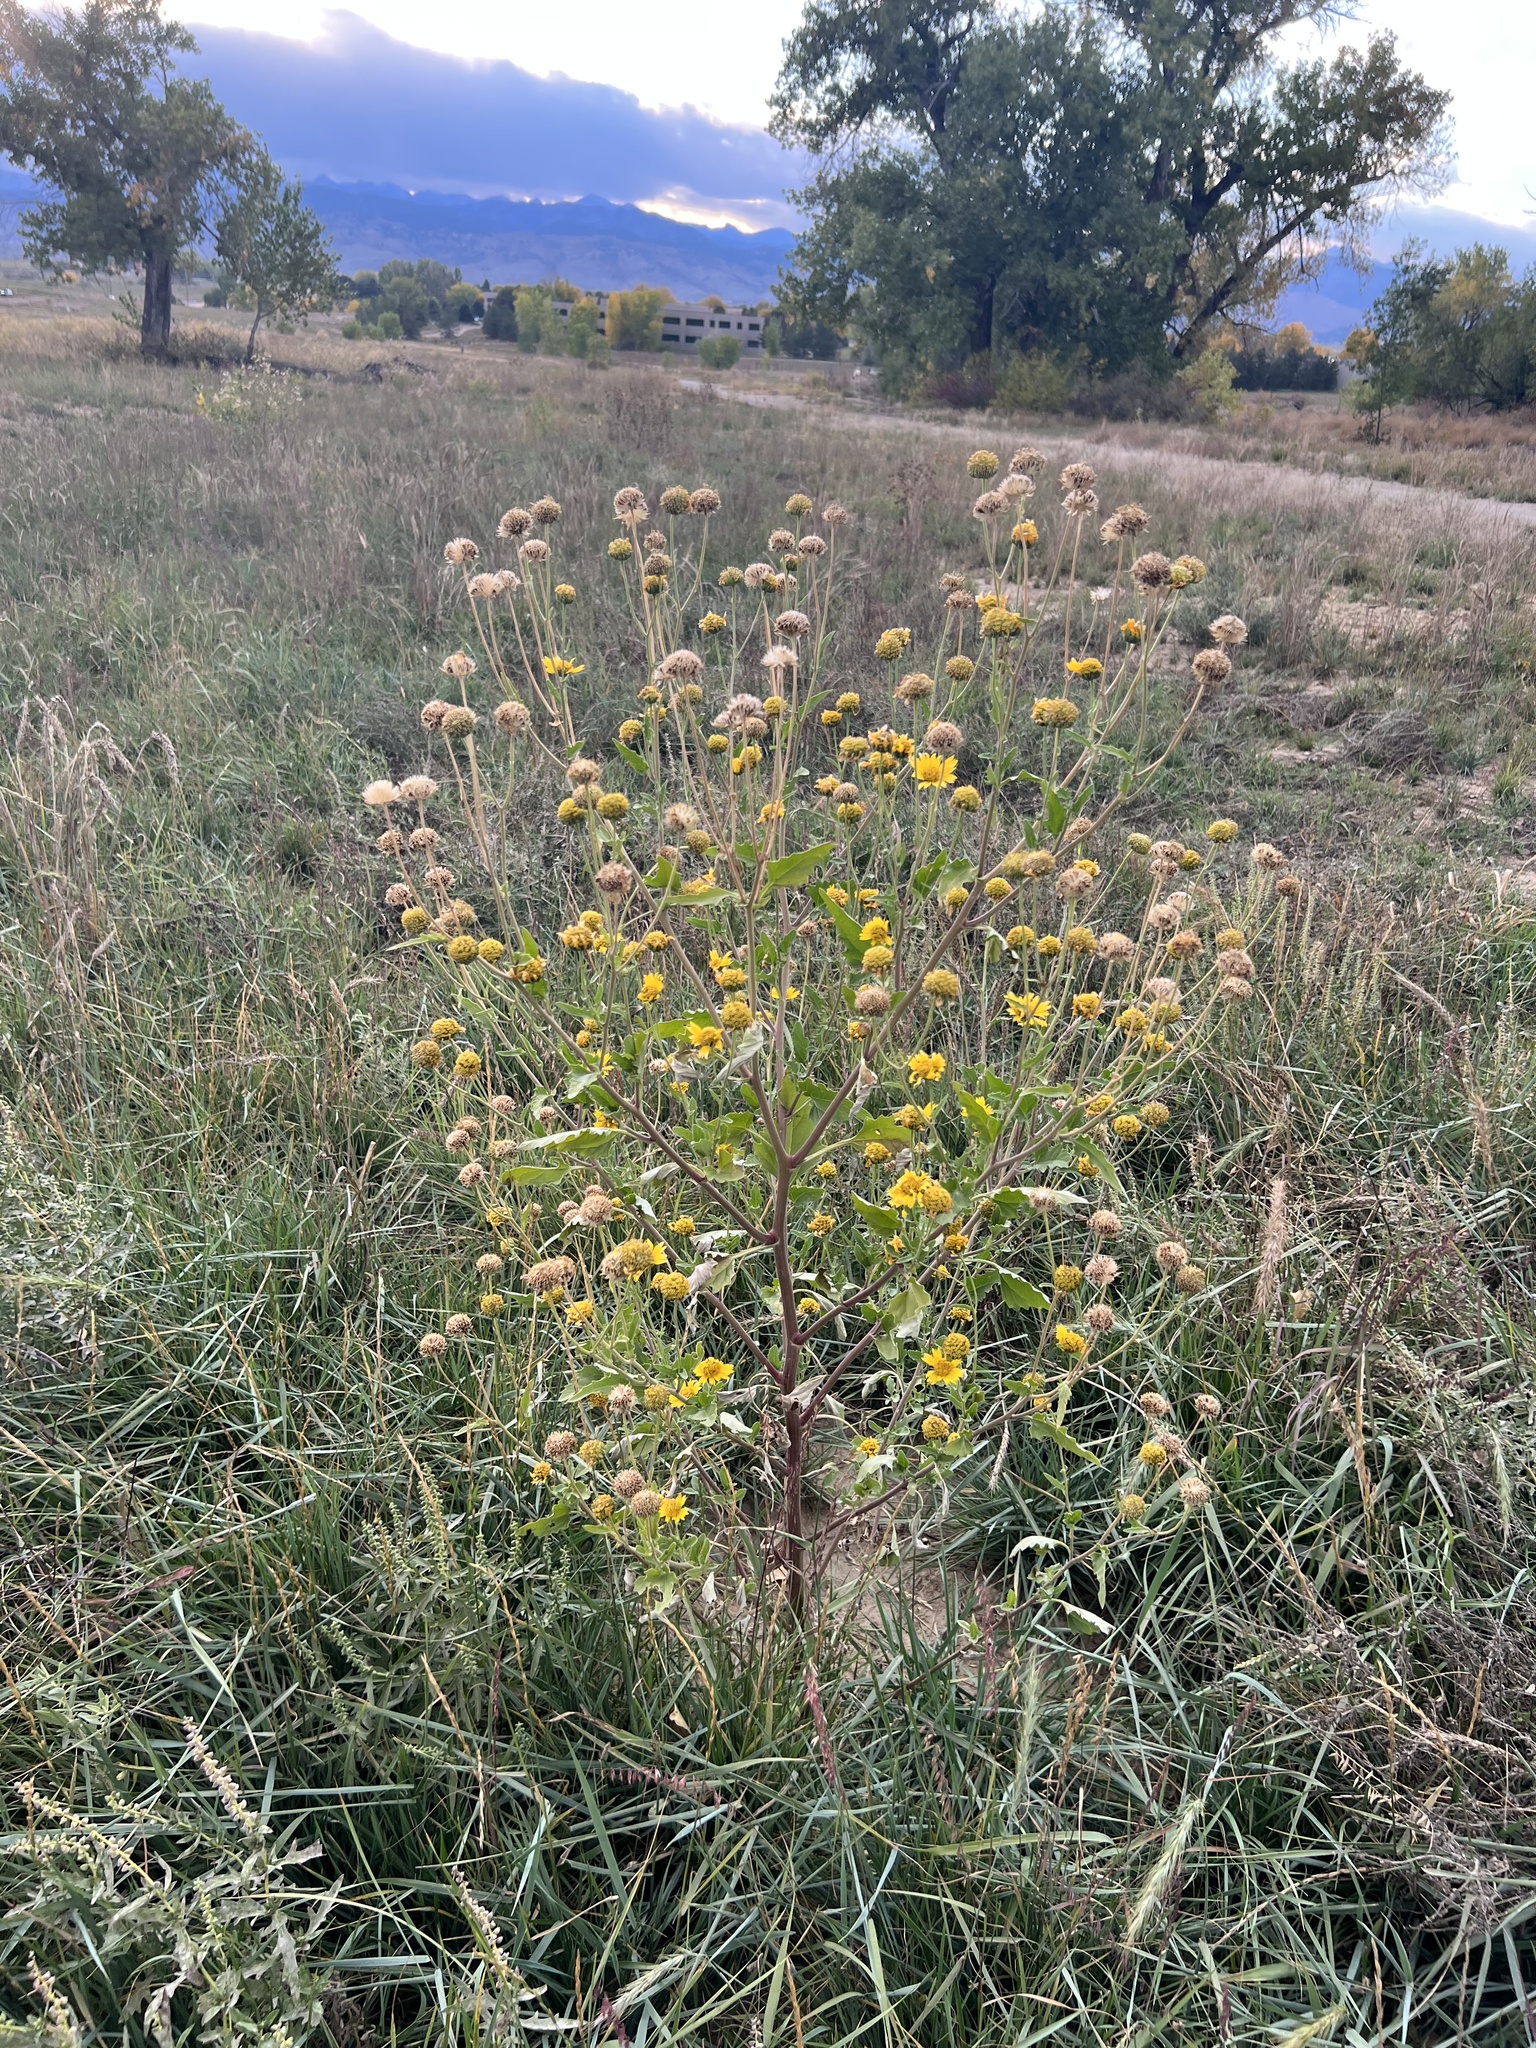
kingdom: Plantae
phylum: Tracheophyta
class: Magnoliopsida
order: Asterales
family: Asteraceae
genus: Verbesina
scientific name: Verbesina encelioides
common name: Golden crownbeard
